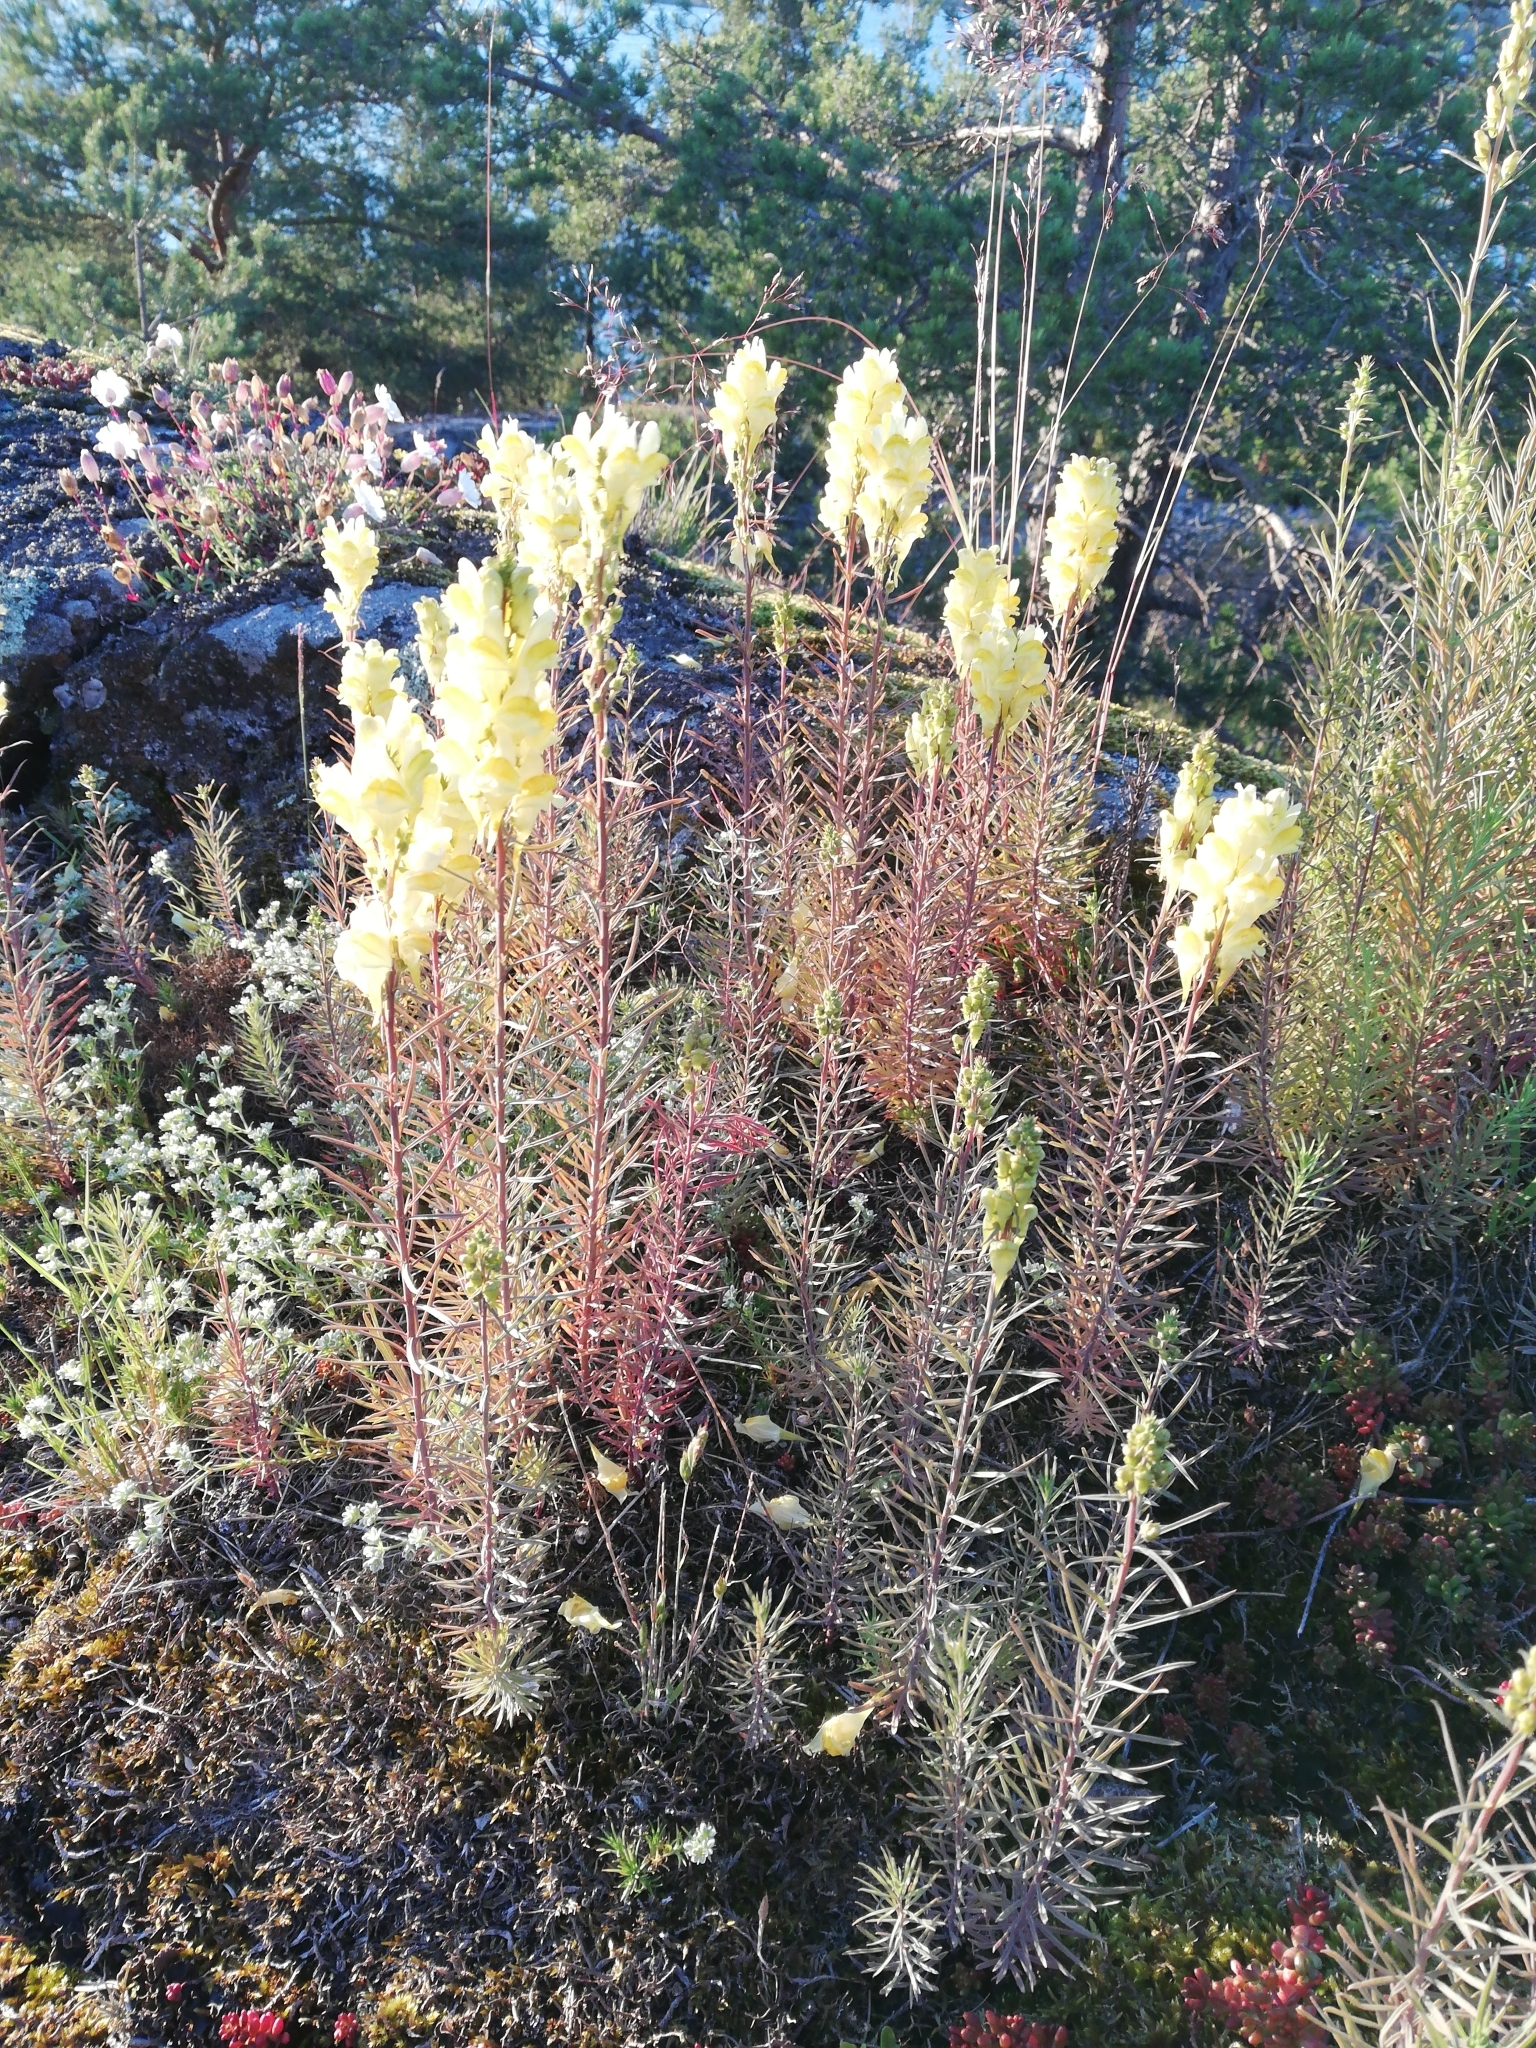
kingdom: Plantae
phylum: Tracheophyta
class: Magnoliopsida
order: Lamiales
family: Plantaginaceae
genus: Linaria
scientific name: Linaria vulgaris
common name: Butter and eggs
